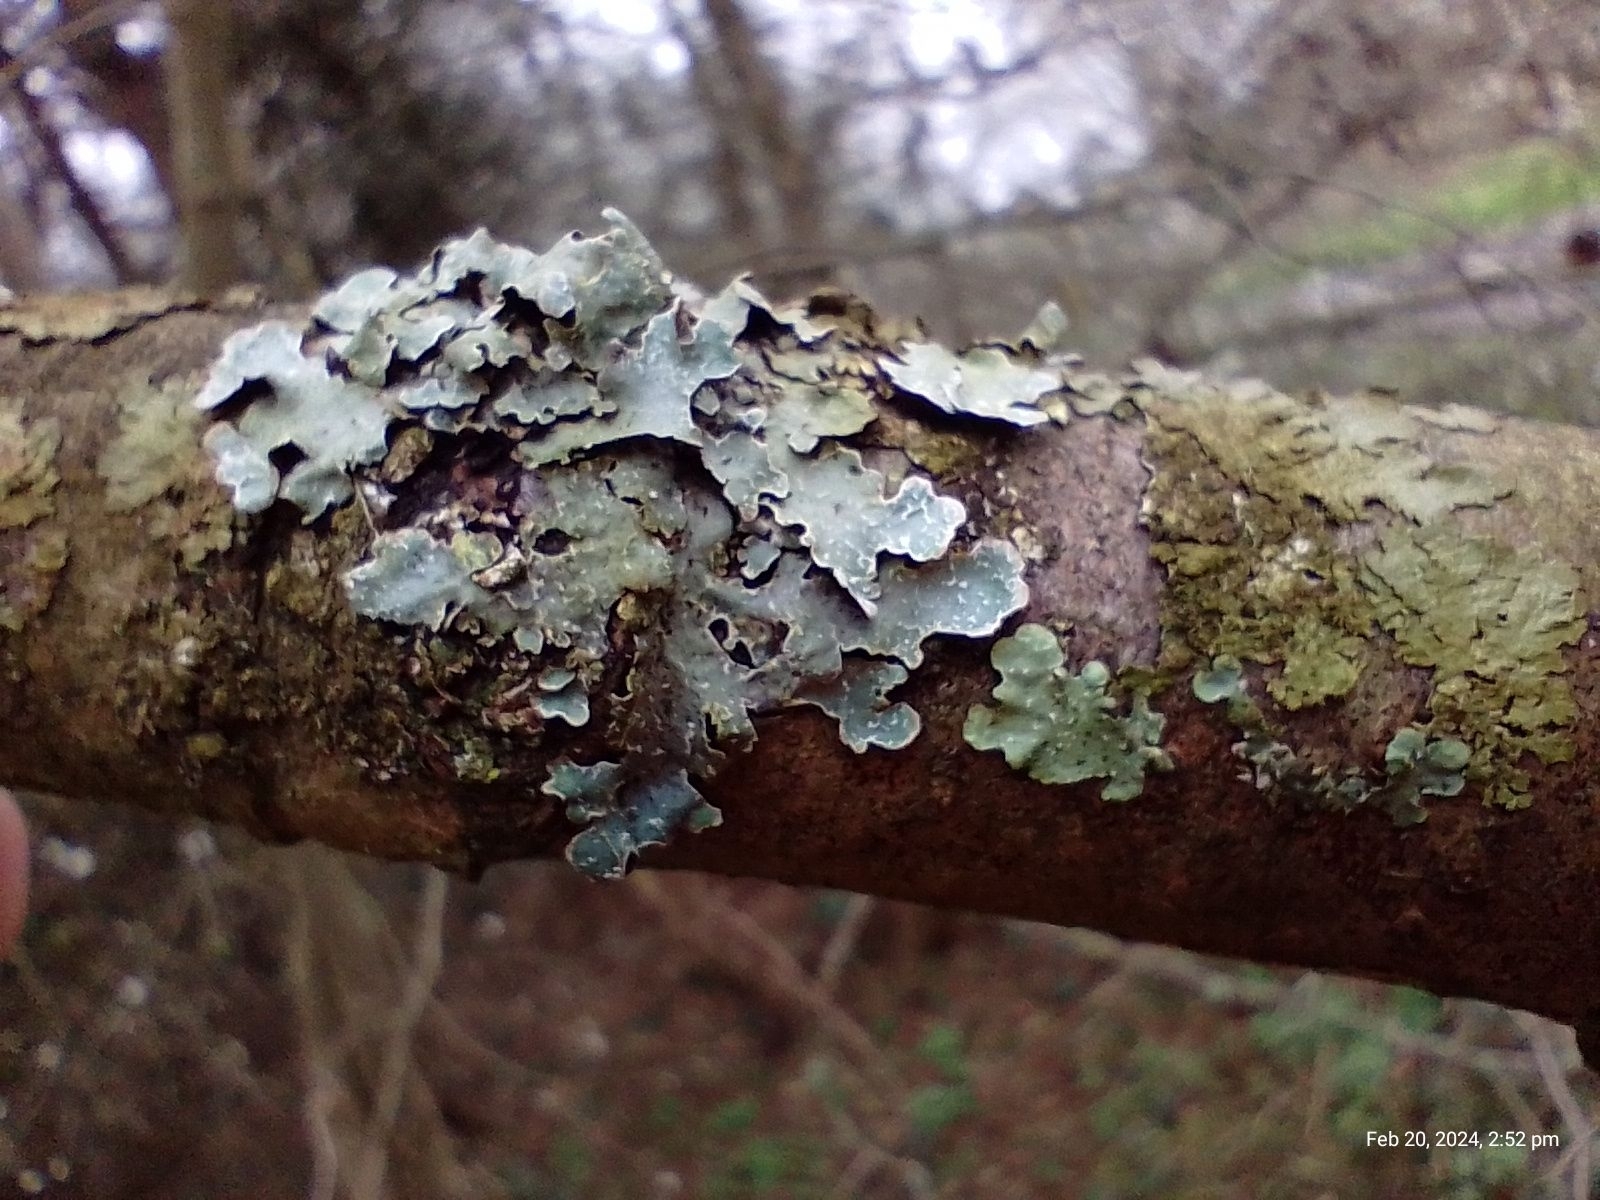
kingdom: Fungi
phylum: Ascomycota
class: Lecanoromycetes
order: Lecanorales
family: Parmeliaceae
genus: Parmelia
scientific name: Parmelia sulcata
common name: Netted shield lichen
